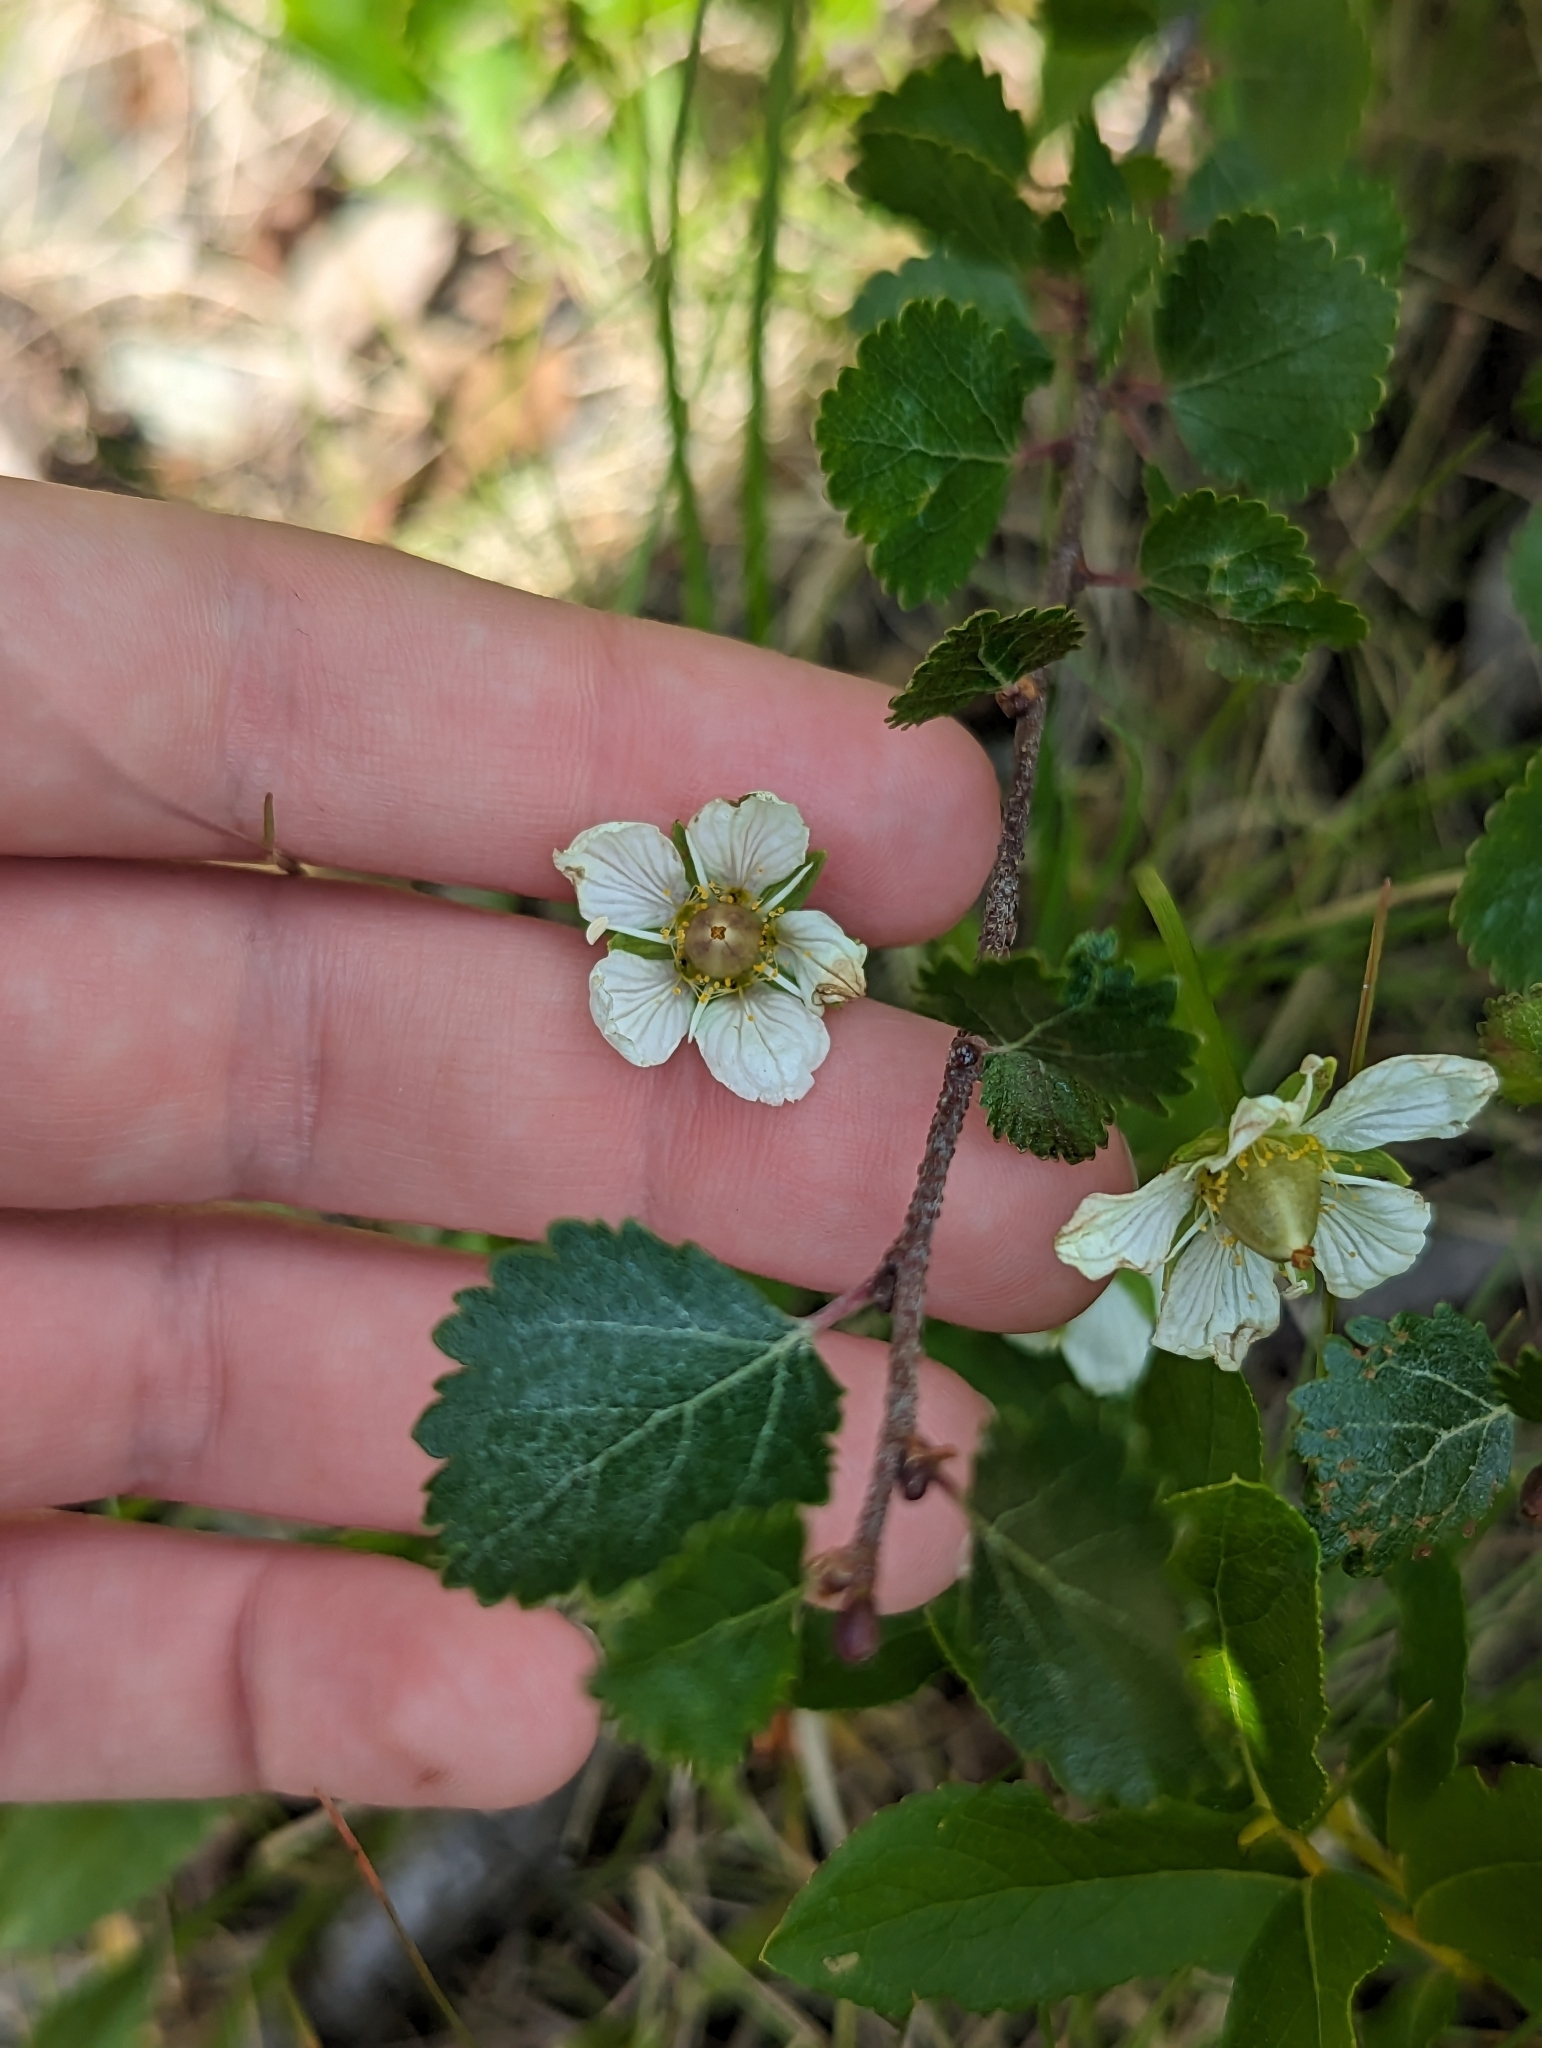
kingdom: Plantae
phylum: Tracheophyta
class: Magnoliopsida
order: Celastrales
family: Parnassiaceae
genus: Parnassia
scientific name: Parnassia palustris
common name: Grass-of-parnassus
